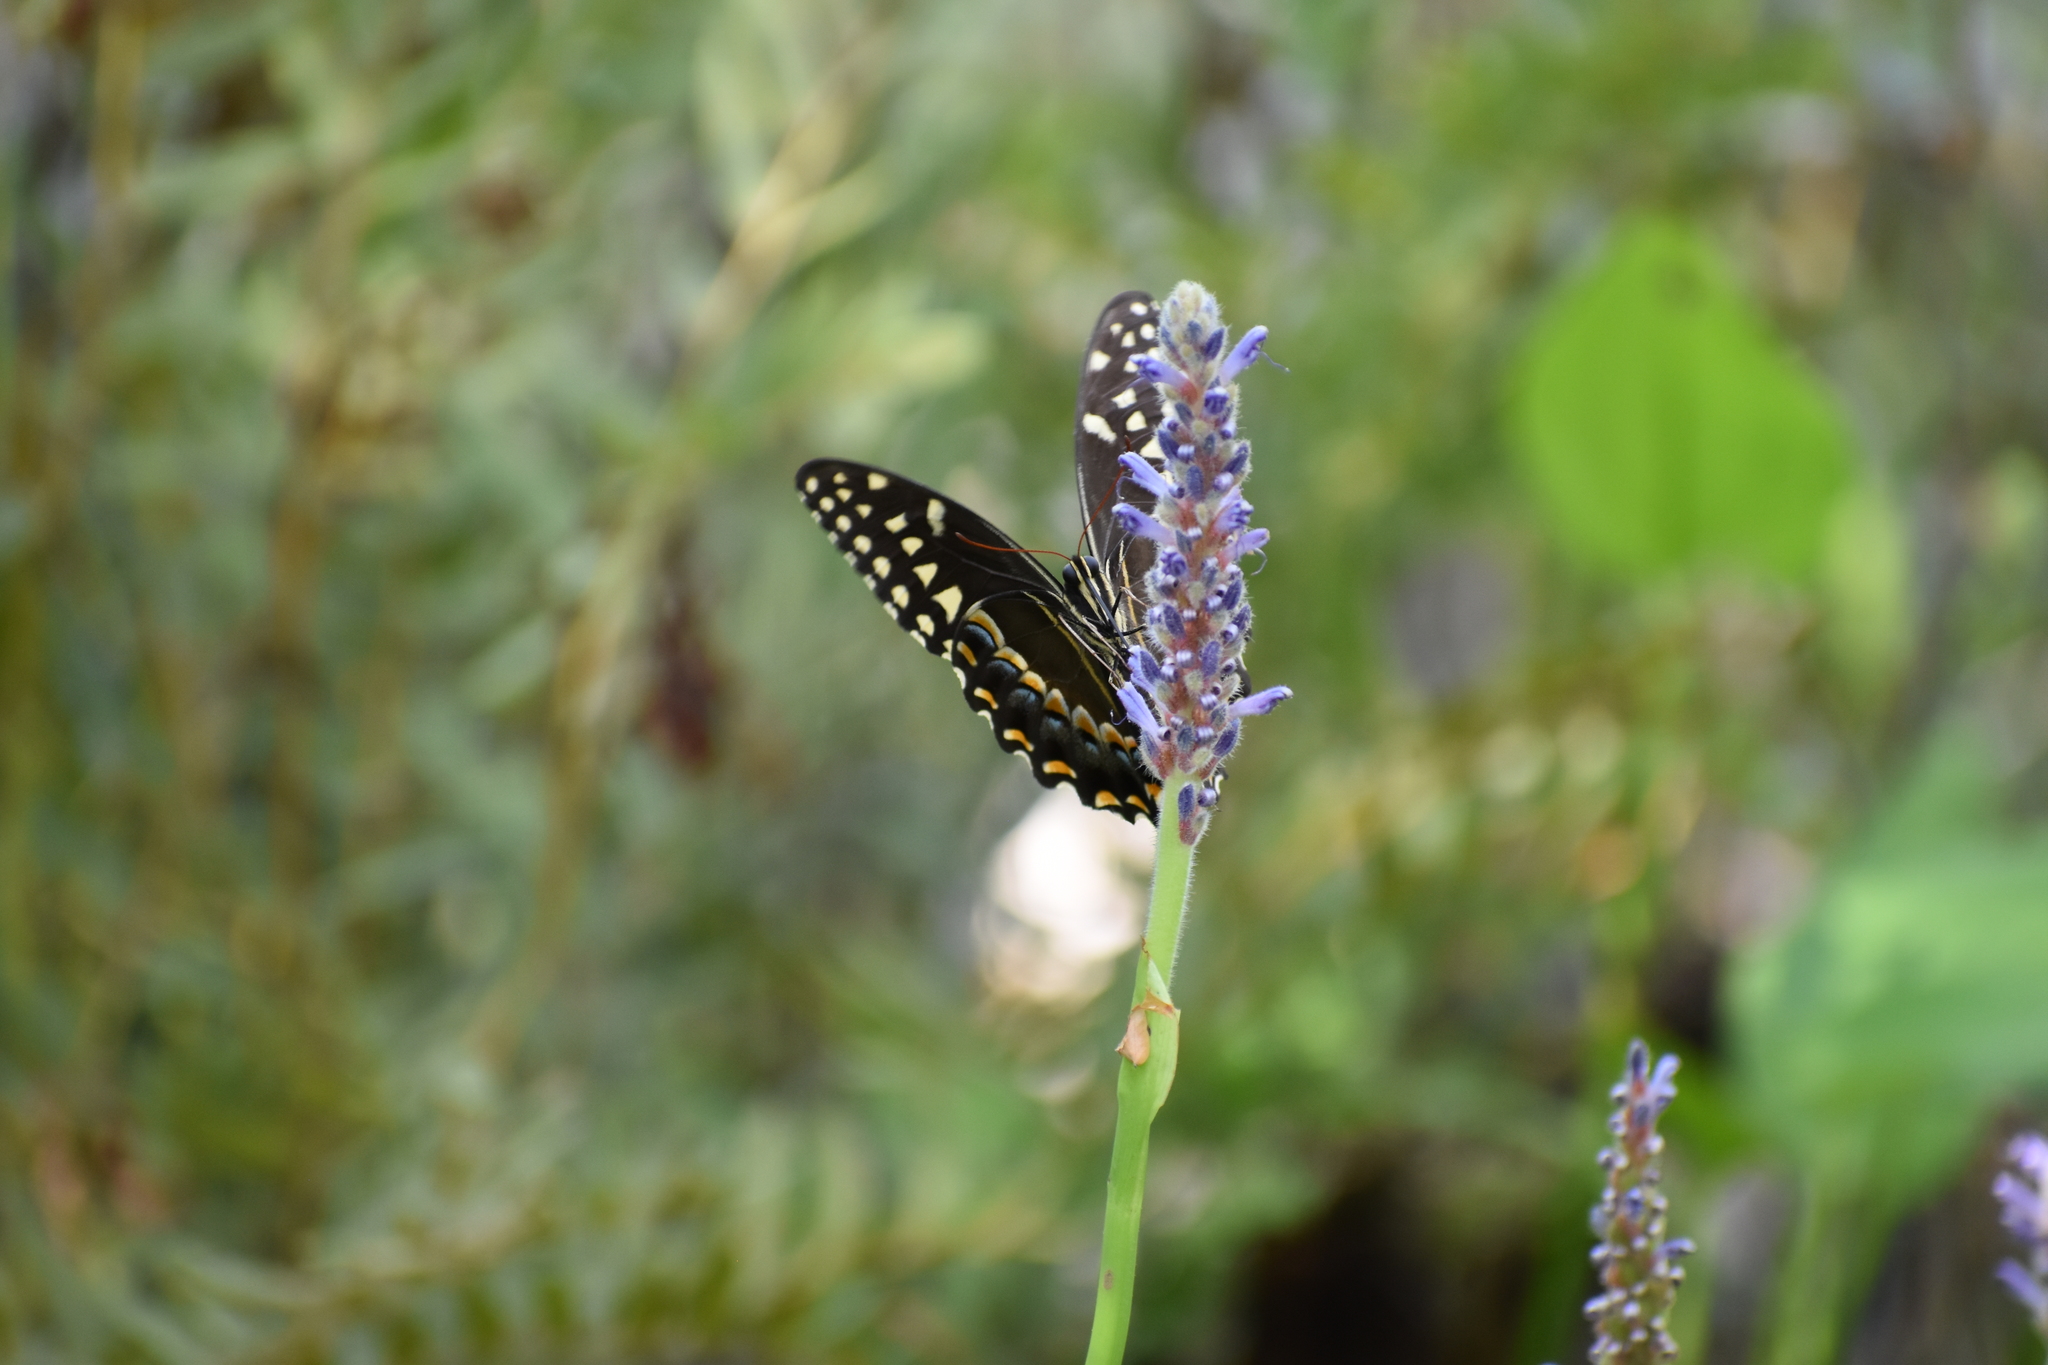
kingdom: Animalia
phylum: Arthropoda
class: Insecta
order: Lepidoptera
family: Papilionidae
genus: Papilio
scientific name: Papilio palamedes
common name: Palamedes swallowtail
